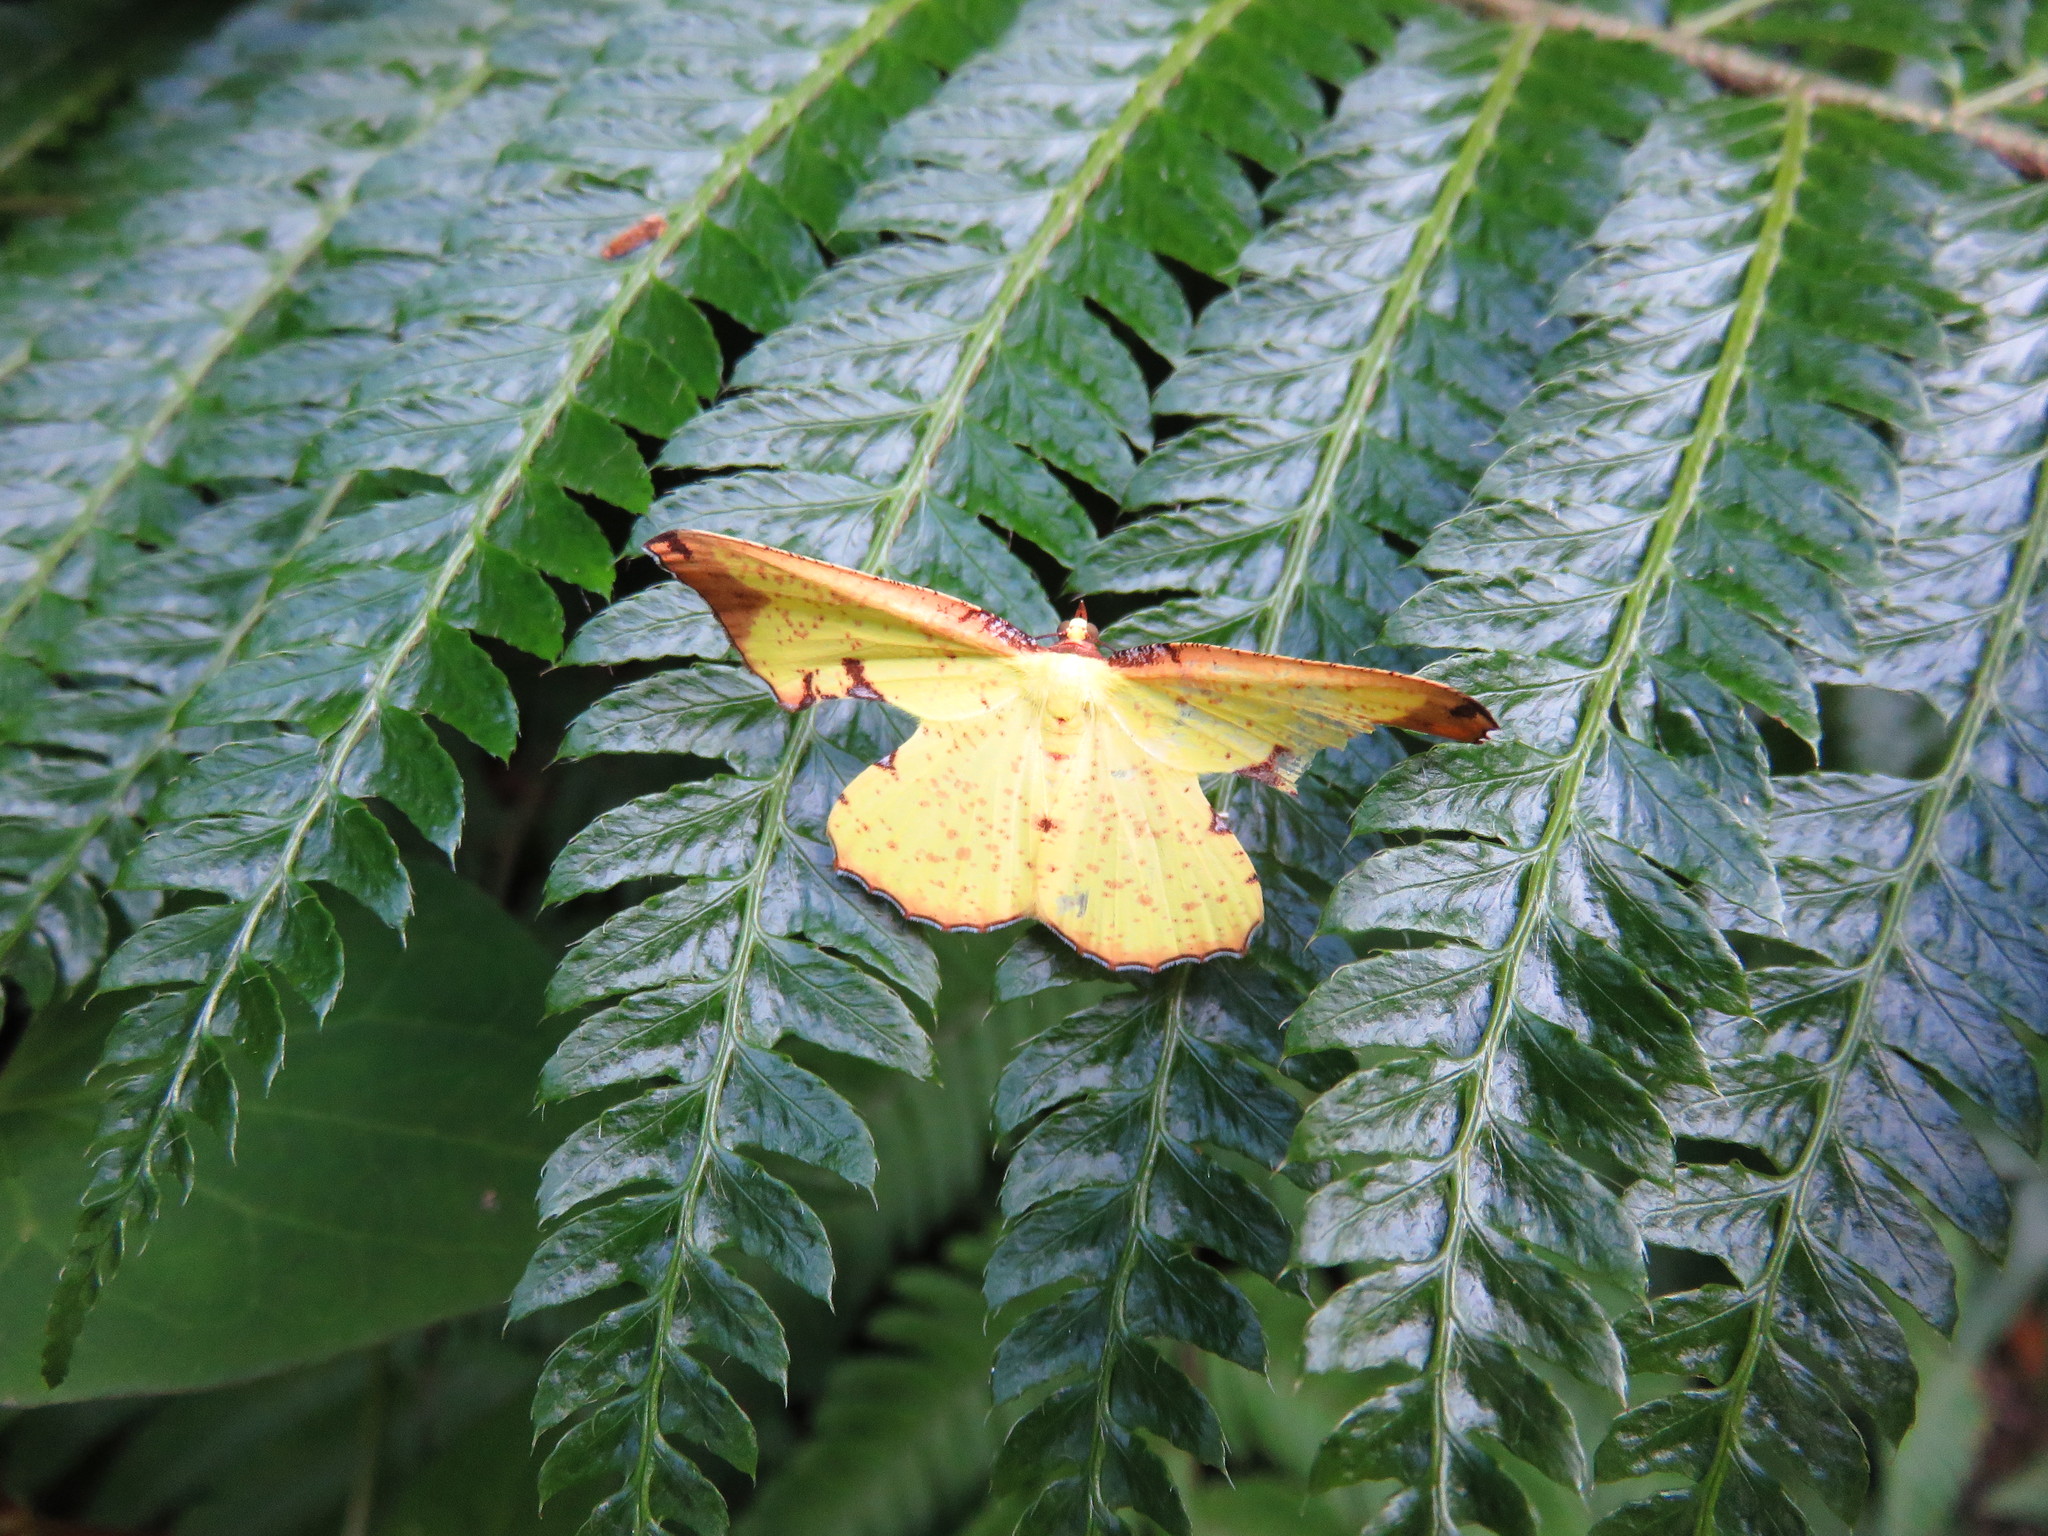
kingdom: Animalia
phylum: Arthropoda
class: Insecta
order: Lepidoptera
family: Geometridae
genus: Corymica
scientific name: Corymica pryeri
